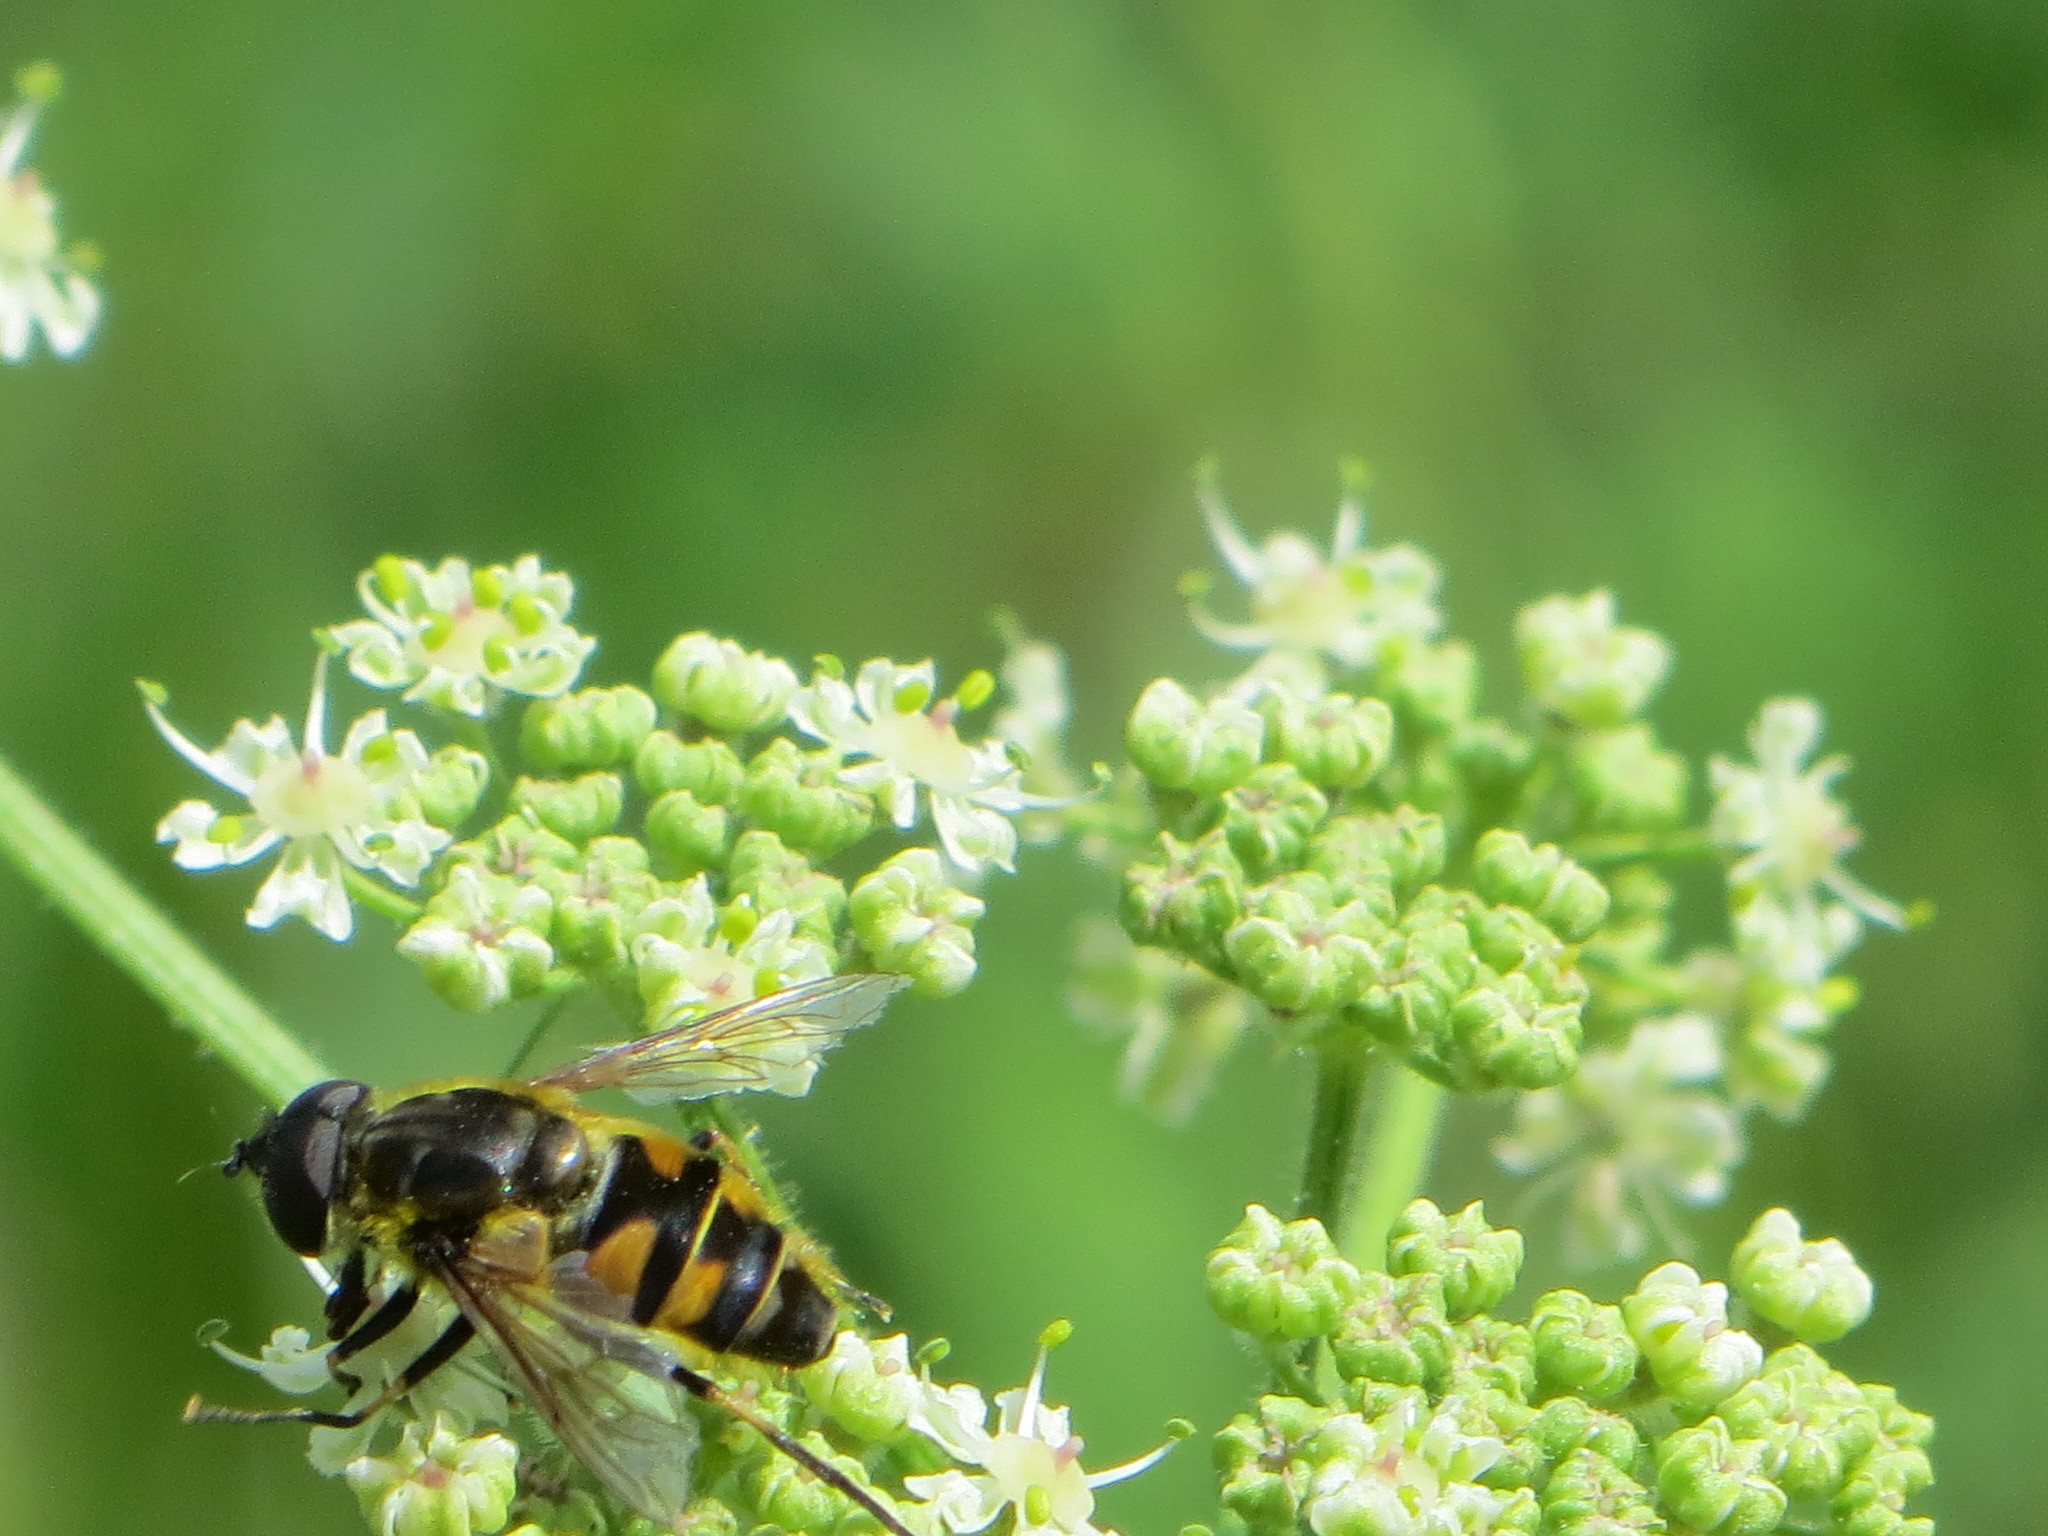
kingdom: Animalia
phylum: Arthropoda
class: Insecta
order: Diptera
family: Syrphidae
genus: Myathropa
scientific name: Myathropa florea
